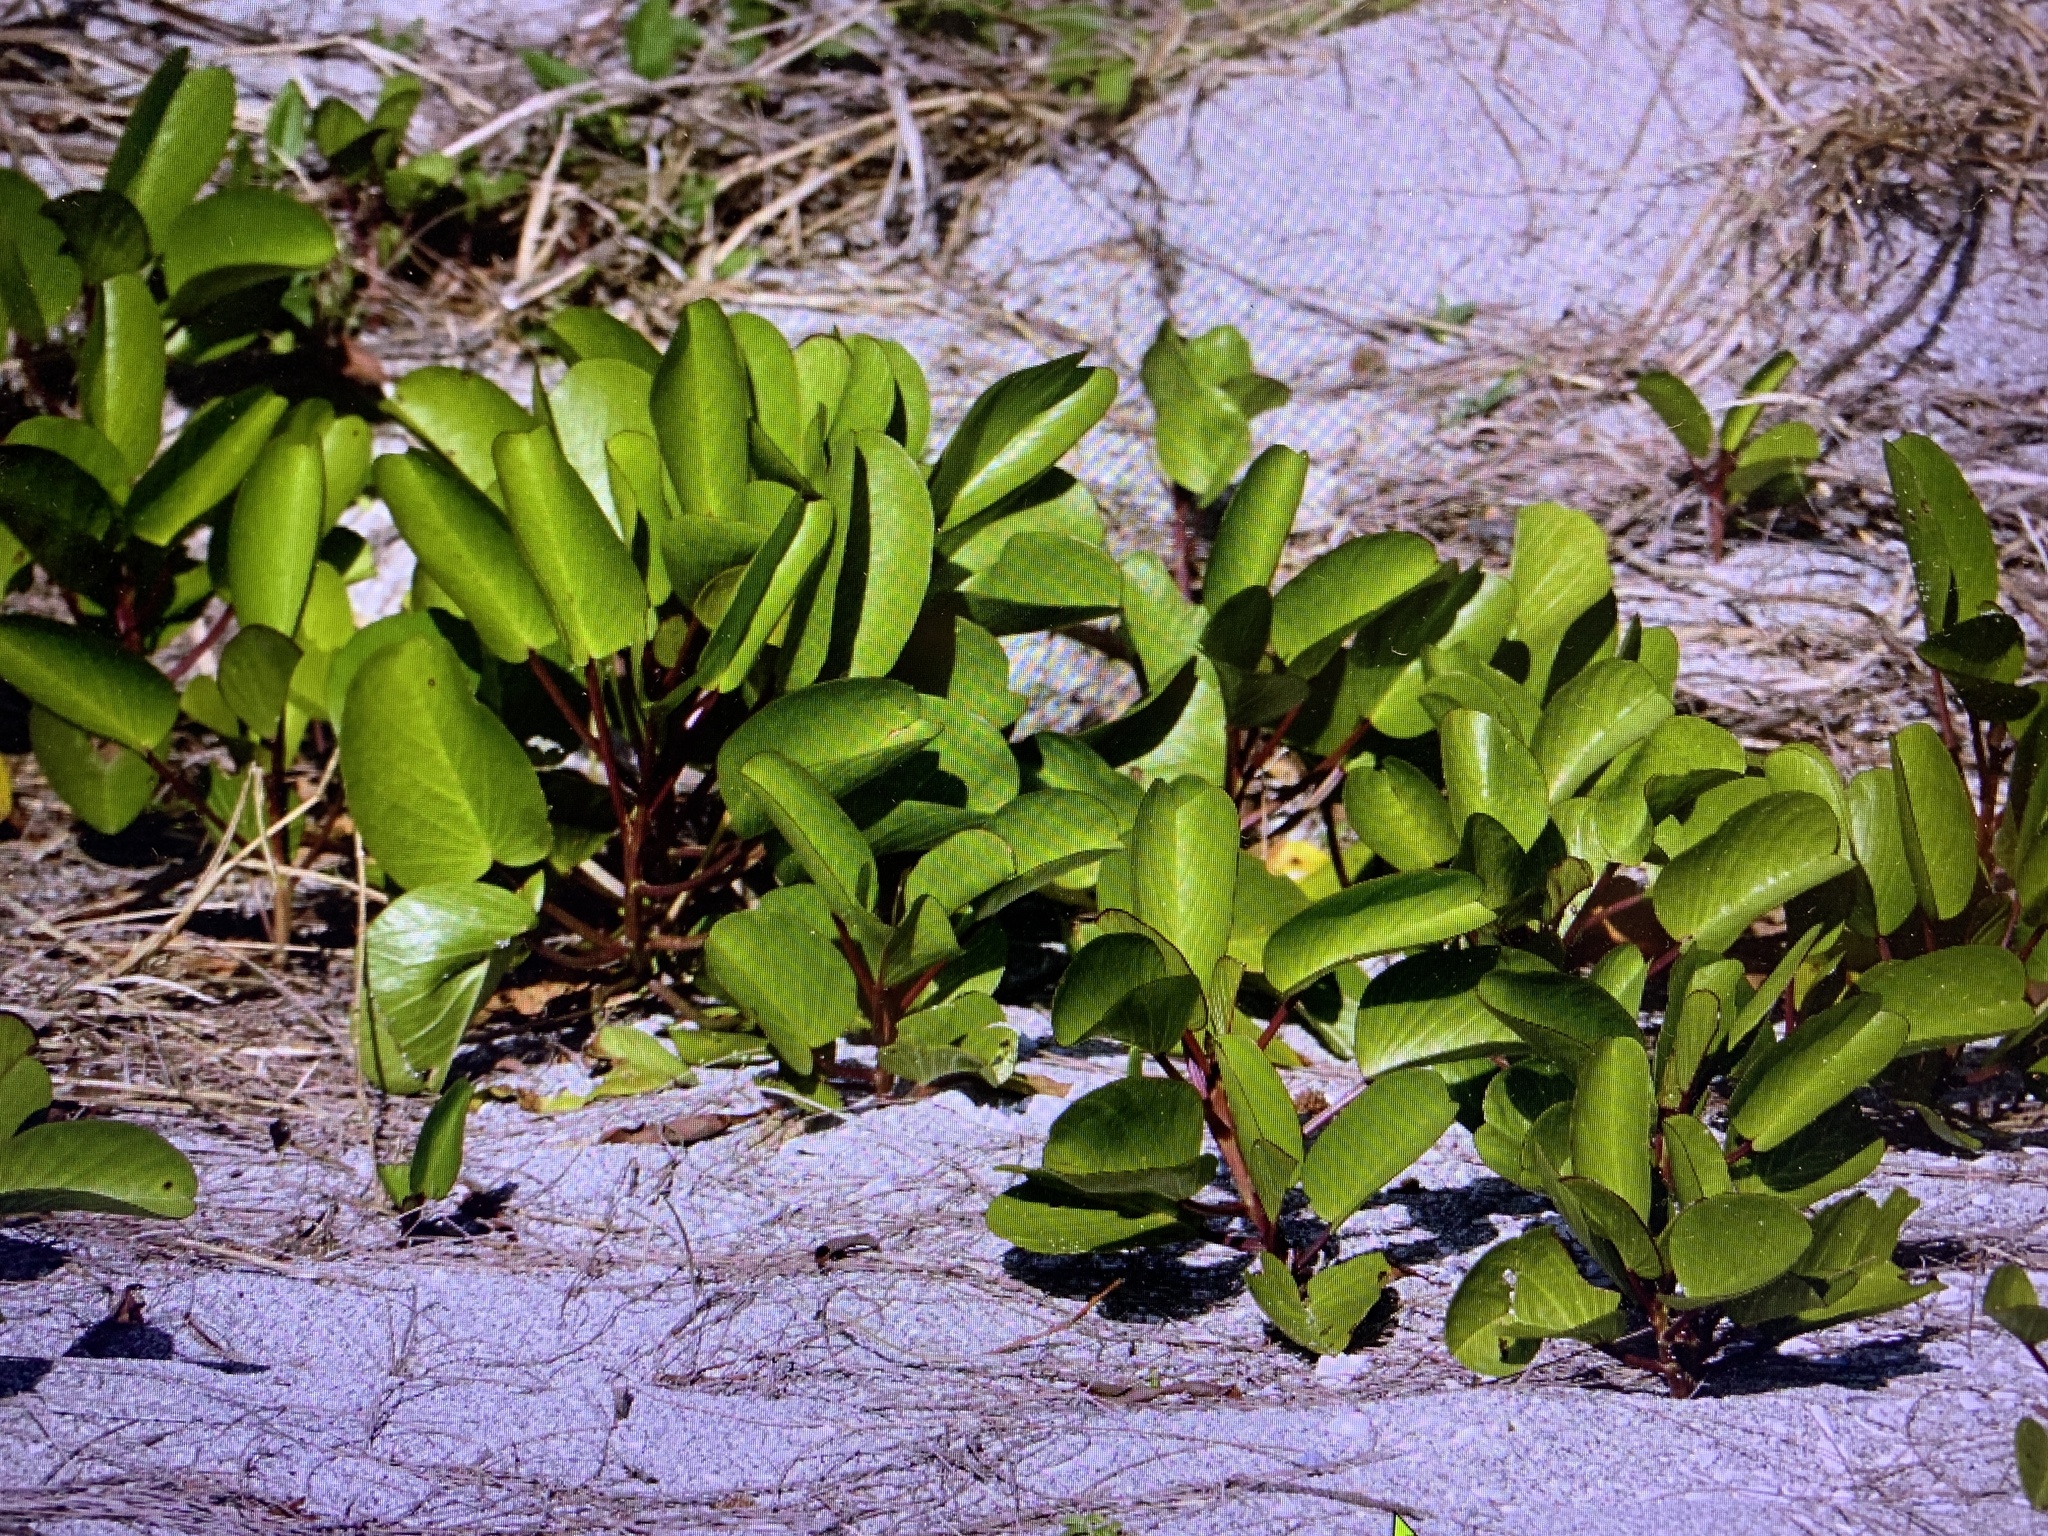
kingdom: Plantae
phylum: Tracheophyta
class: Magnoliopsida
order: Solanales
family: Convolvulaceae
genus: Ipomoea
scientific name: Ipomoea pes-caprae
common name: Beach morning glory
